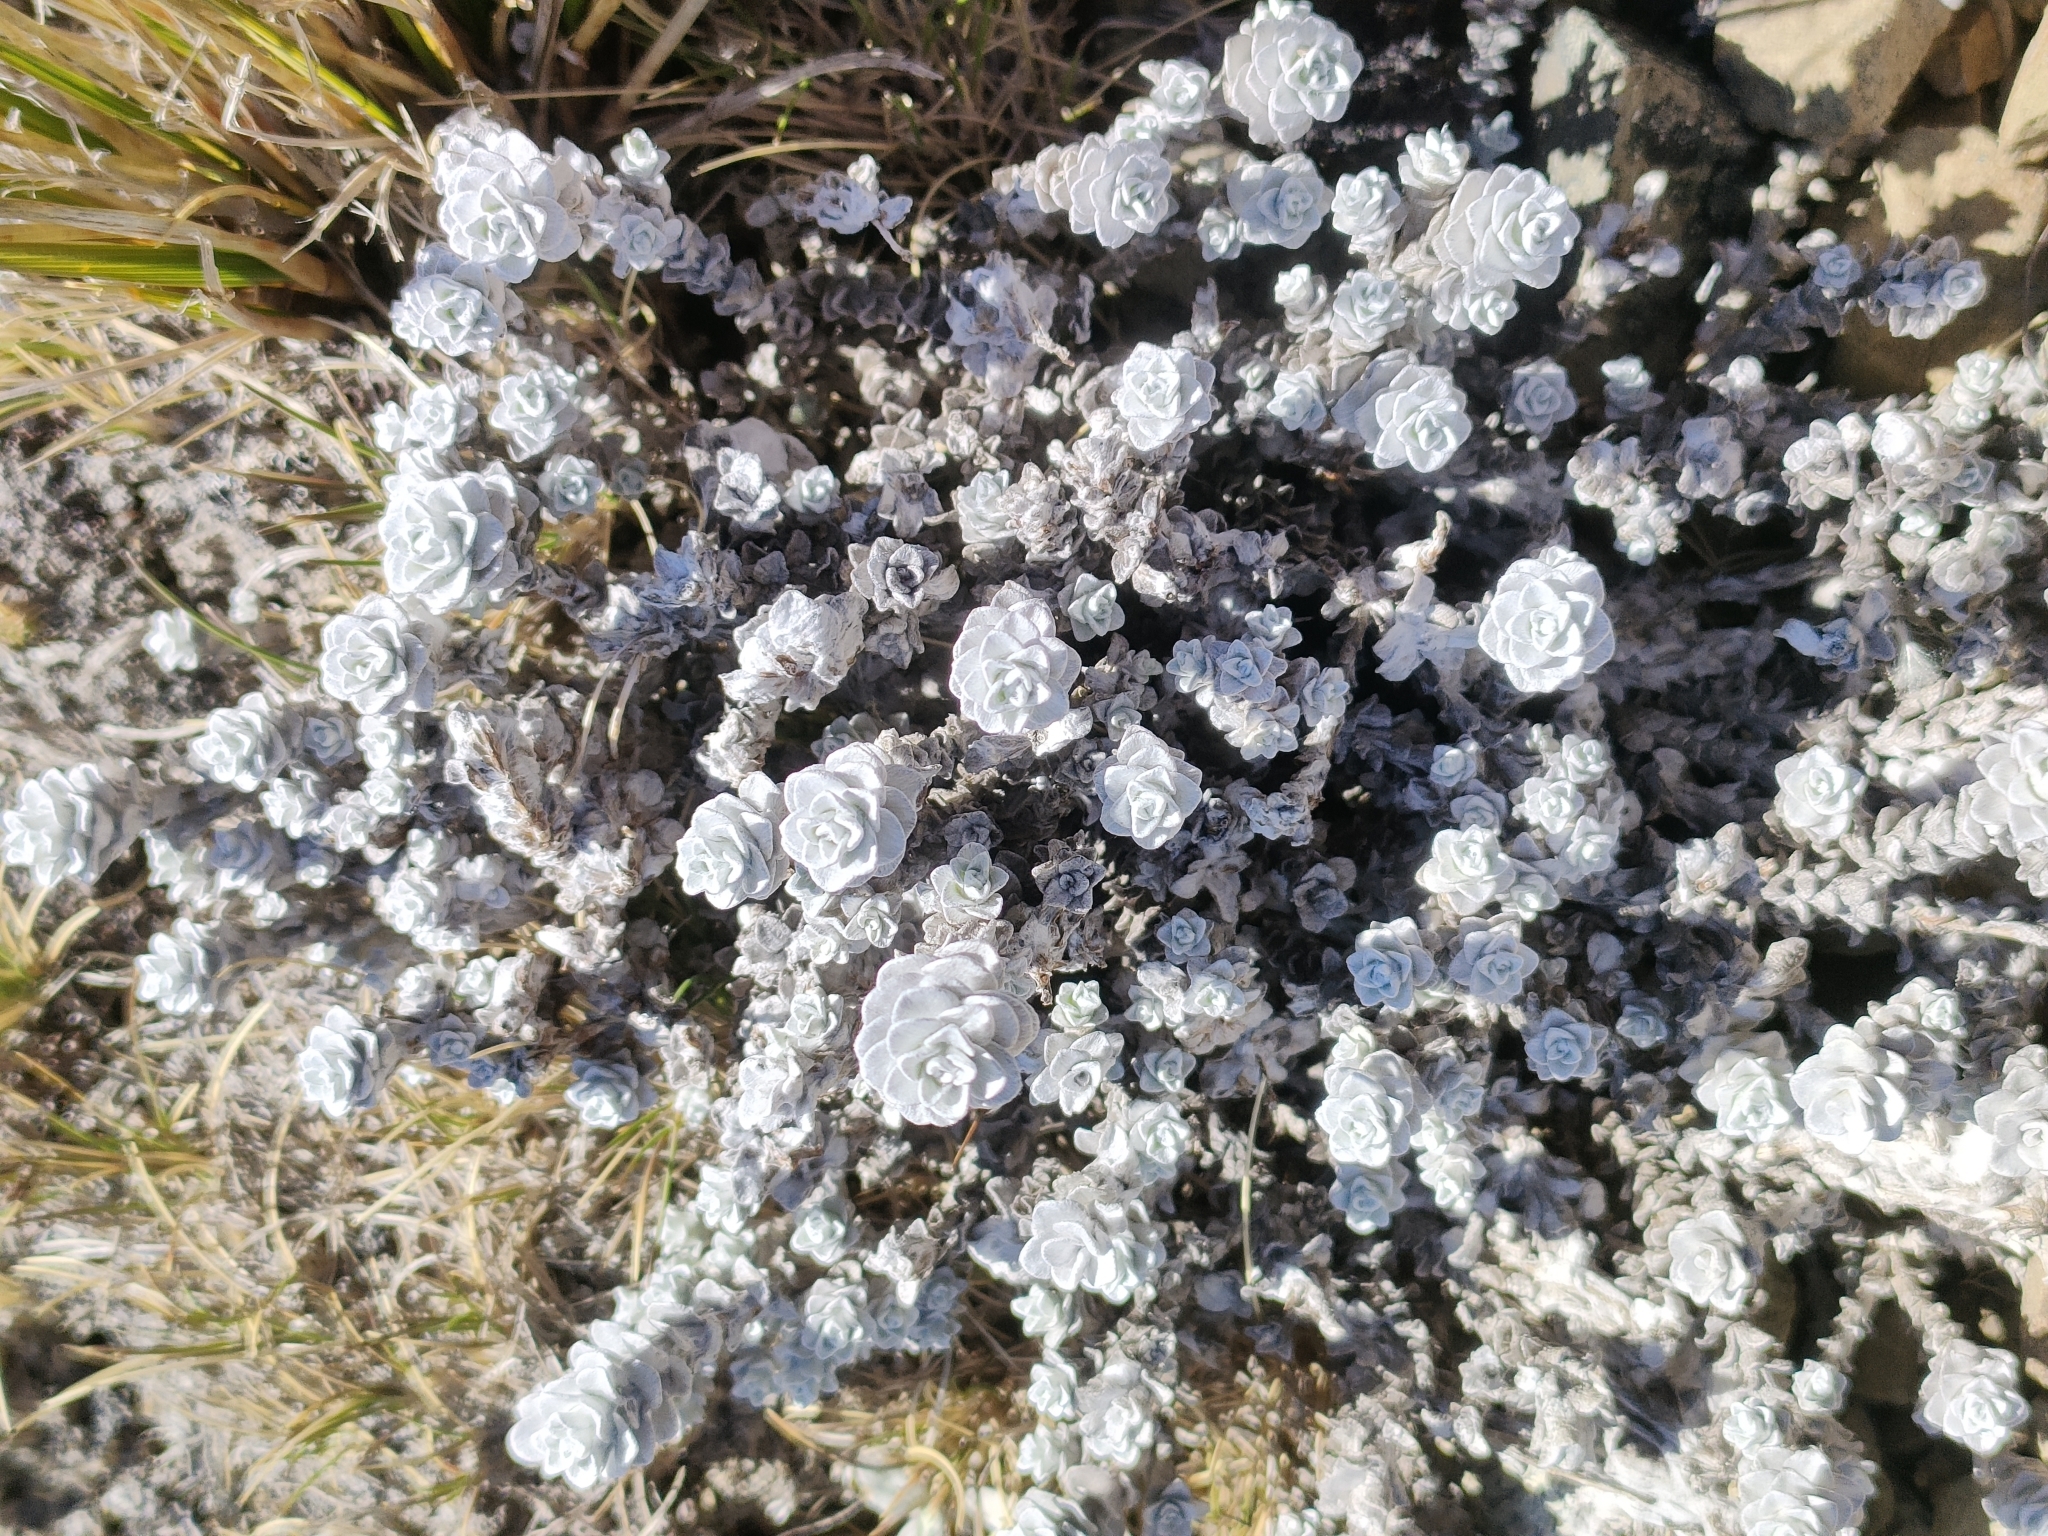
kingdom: Plantae
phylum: Tracheophyta
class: Magnoliopsida
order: Asterales
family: Asteraceae
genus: Leucogenes
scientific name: Leucogenes grandiceps
